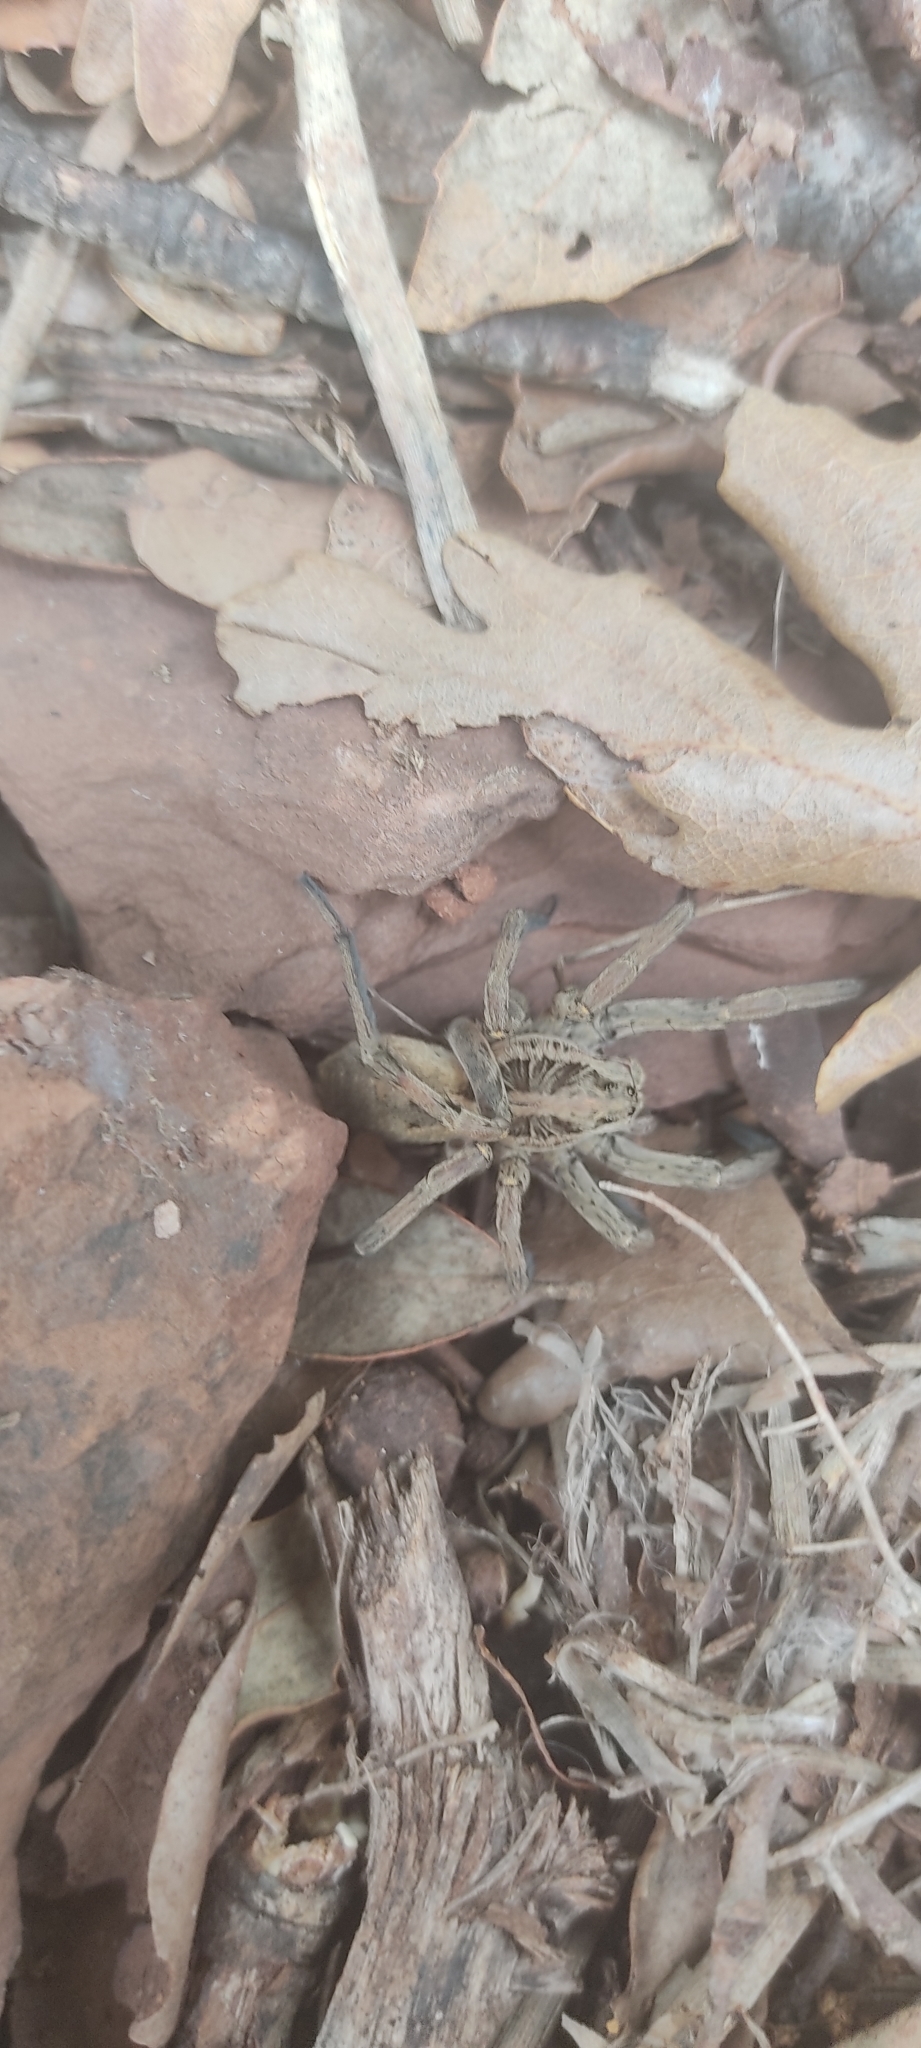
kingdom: Animalia
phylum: Arthropoda
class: Arachnida
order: Araneae
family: Lycosidae
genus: Hogna
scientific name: Hogna radiata
